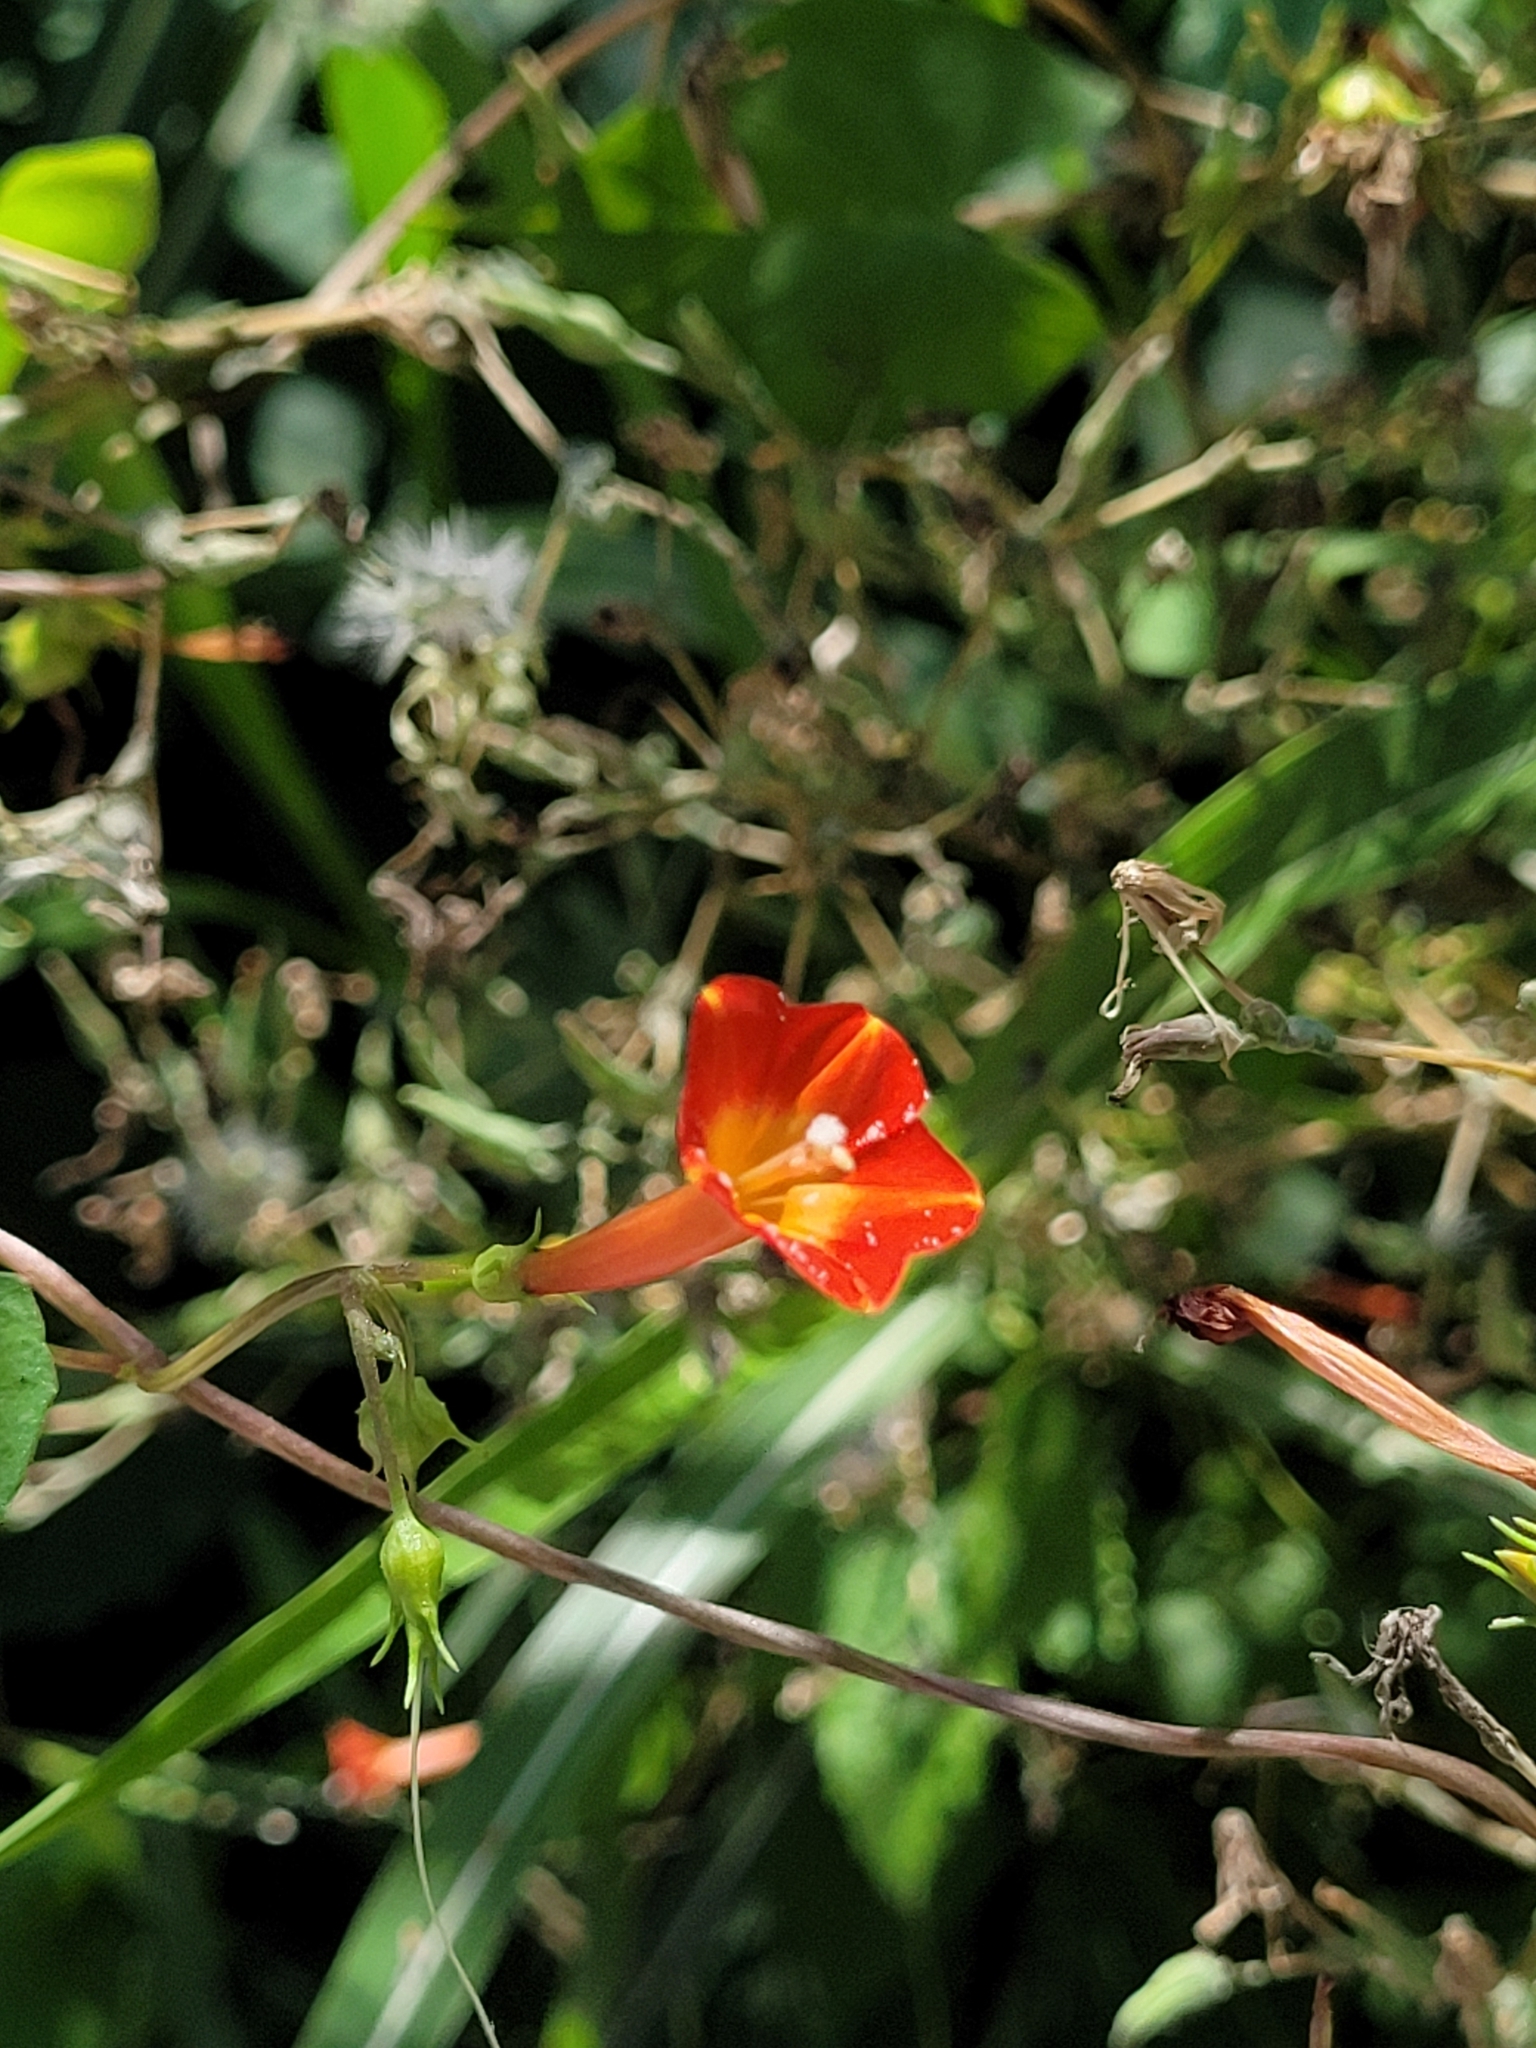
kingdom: Plantae
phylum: Tracheophyta
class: Magnoliopsida
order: Solanales
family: Convolvulaceae
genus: Ipomoea
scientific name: Ipomoea coccinea
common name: Red morning-glory
